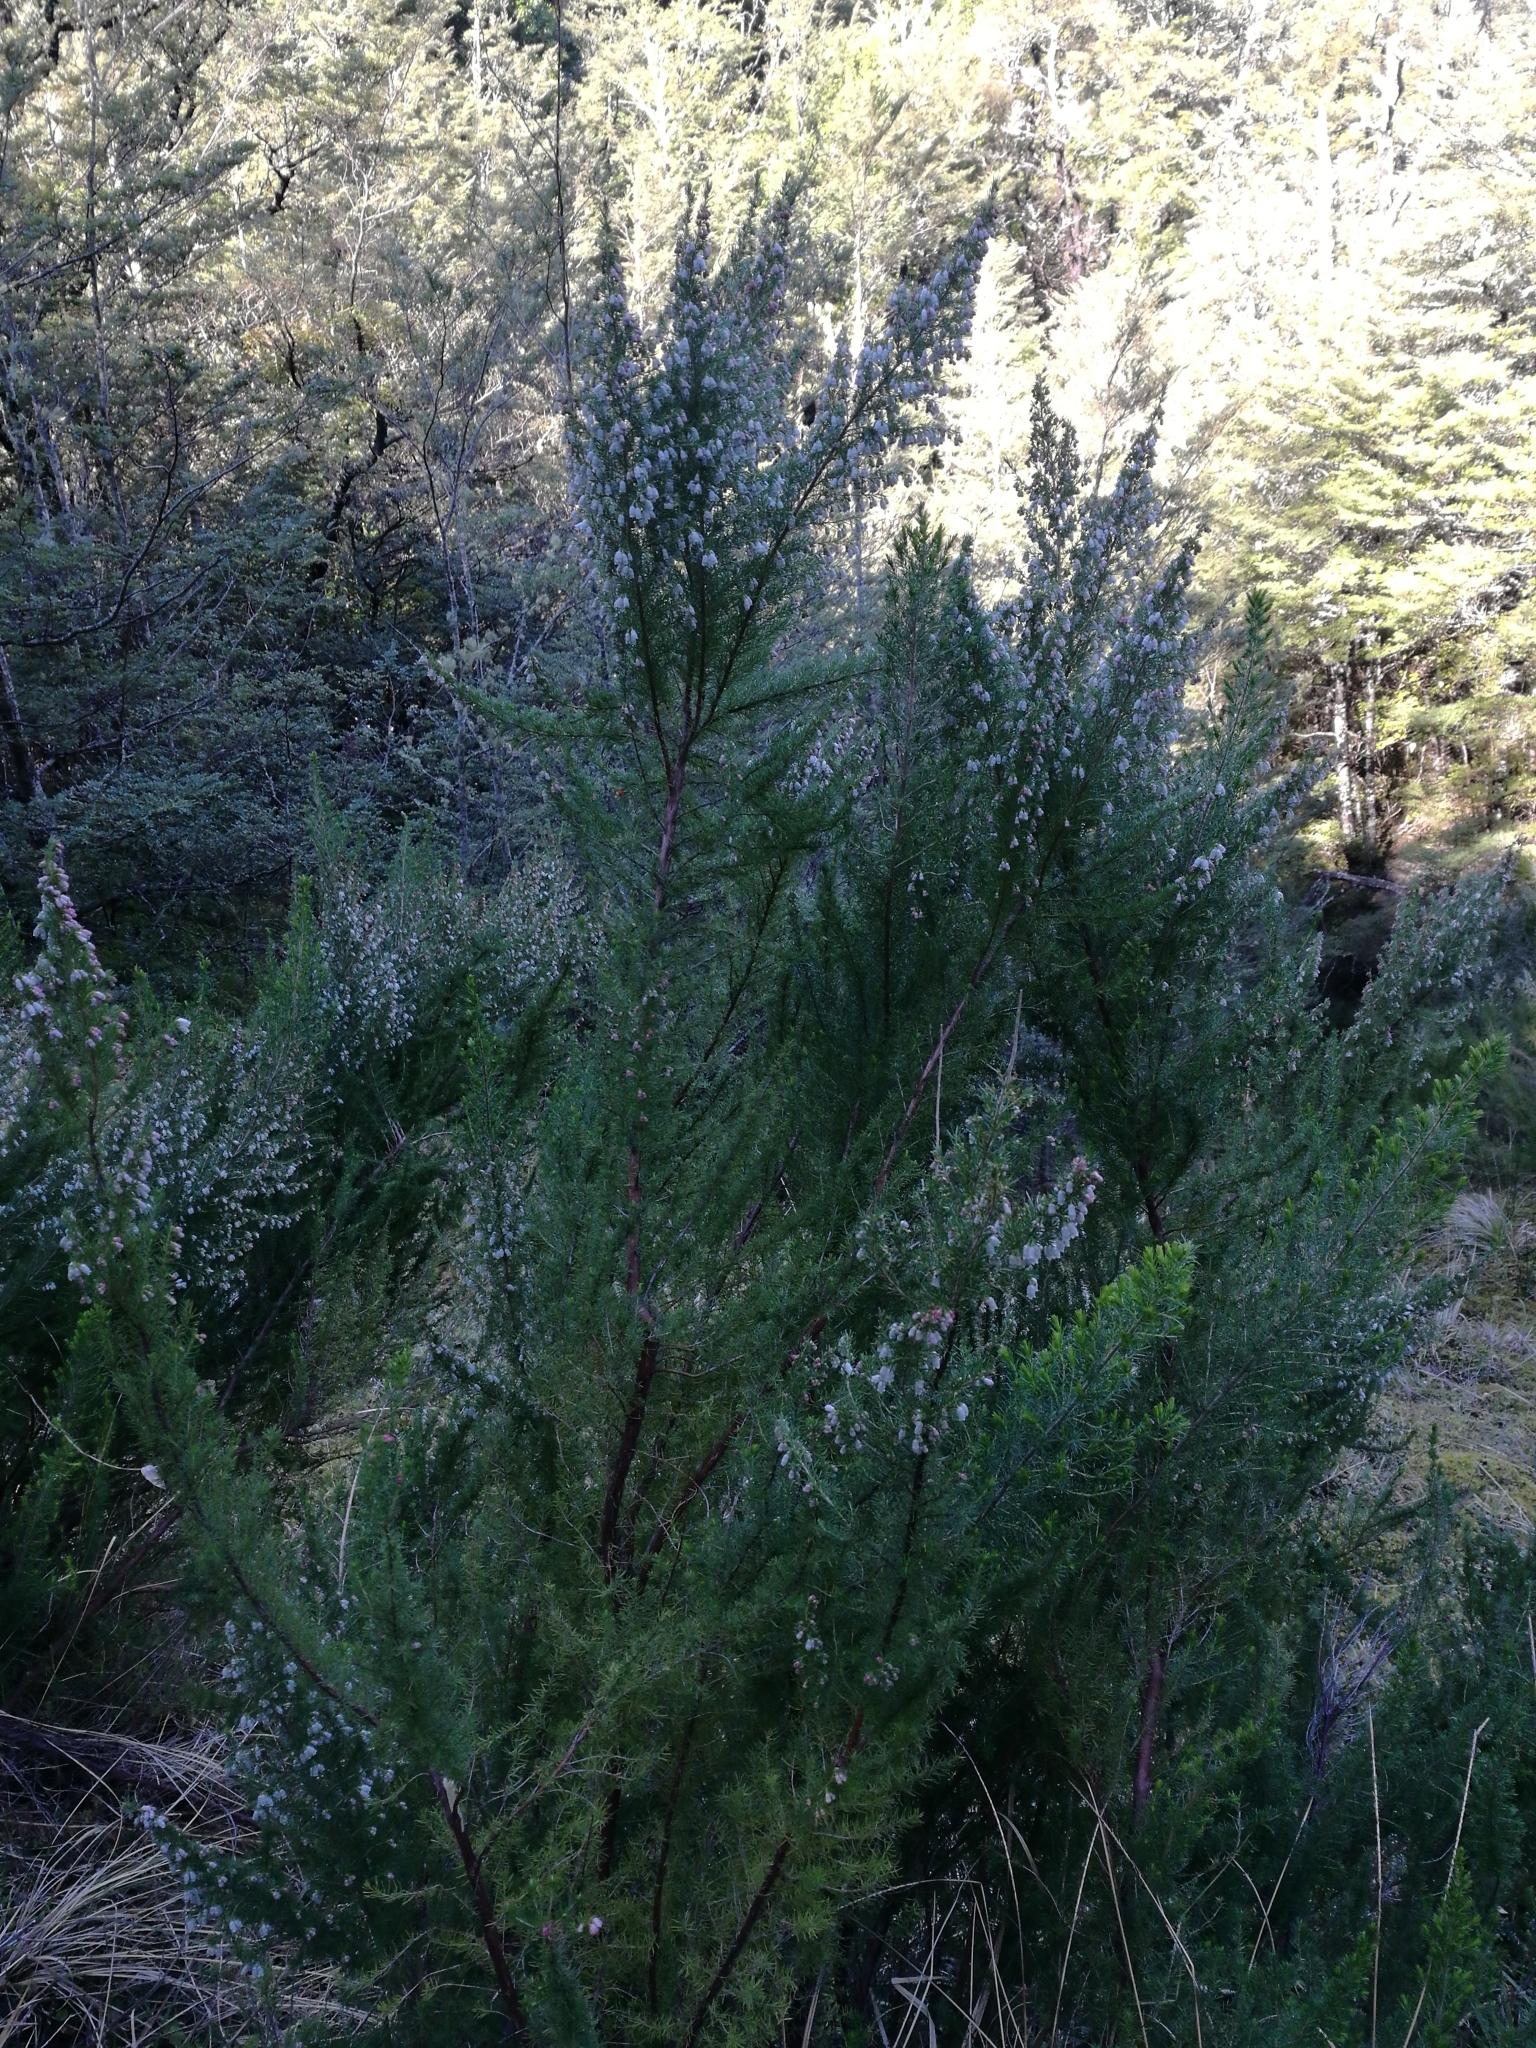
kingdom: Plantae
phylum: Tracheophyta
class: Magnoliopsida
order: Ericales
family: Ericaceae
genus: Erica
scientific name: Erica lusitanica
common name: Spanish heath
